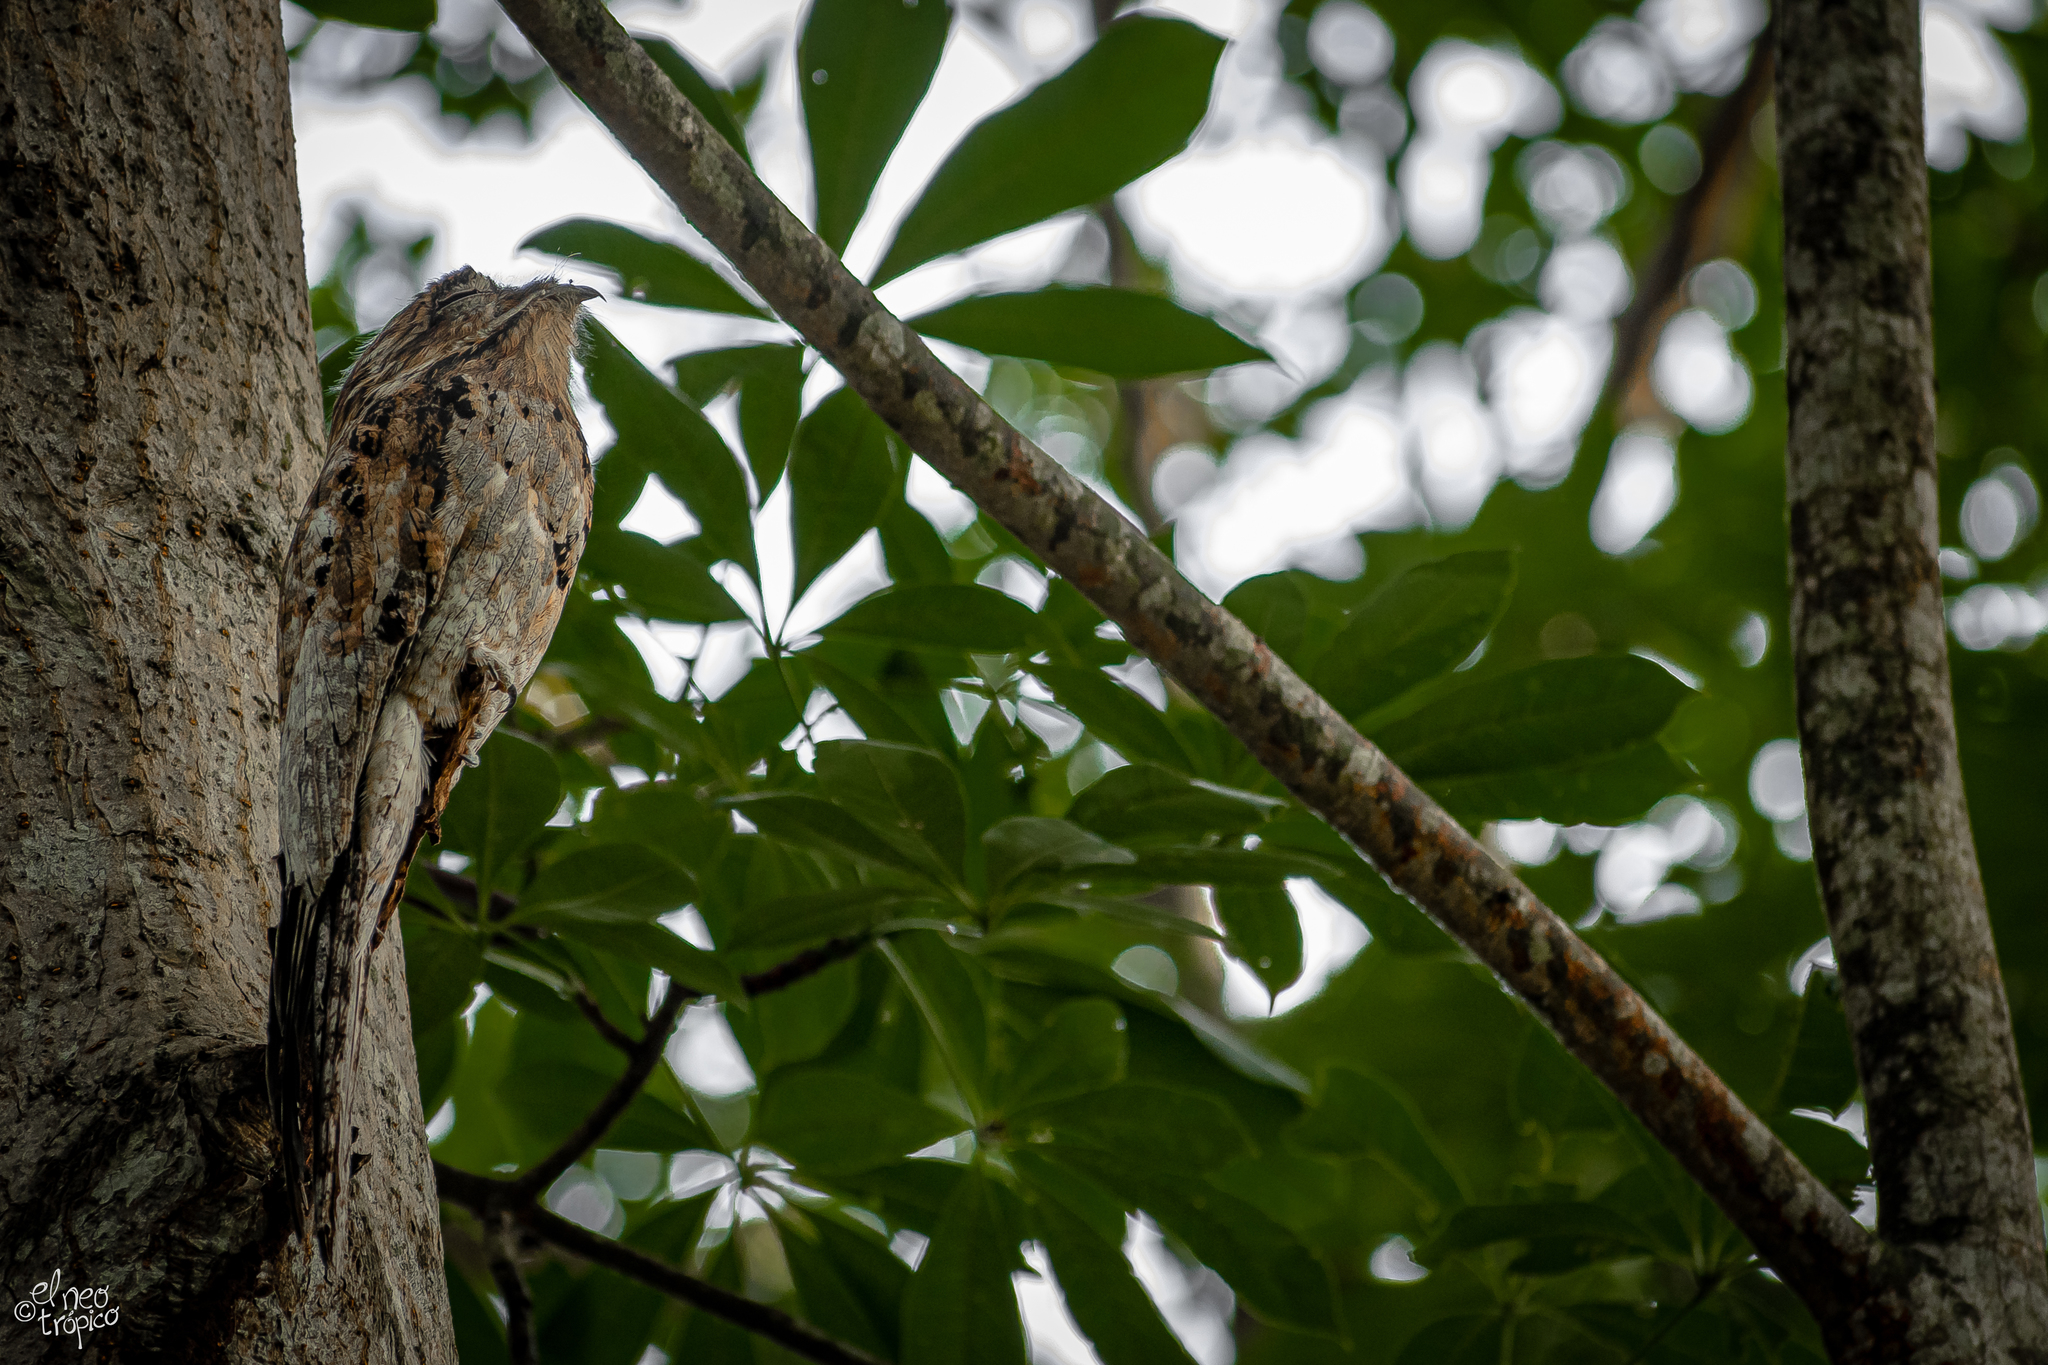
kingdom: Animalia
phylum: Chordata
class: Aves
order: Nyctibiiformes
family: Nyctibiidae
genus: Nyctibius
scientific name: Nyctibius jamaicensis
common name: Northern potoo
